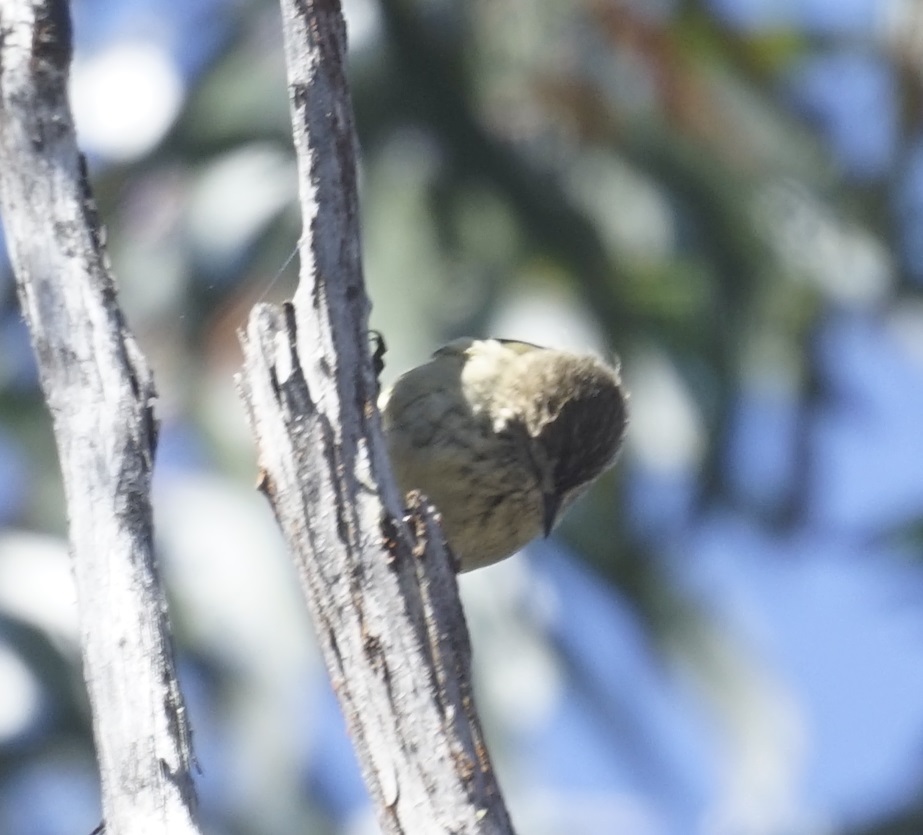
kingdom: Animalia
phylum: Chordata
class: Aves
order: Passeriformes
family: Acanthizidae
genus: Acanthiza
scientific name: Acanthiza lineata
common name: Striated thornbill
